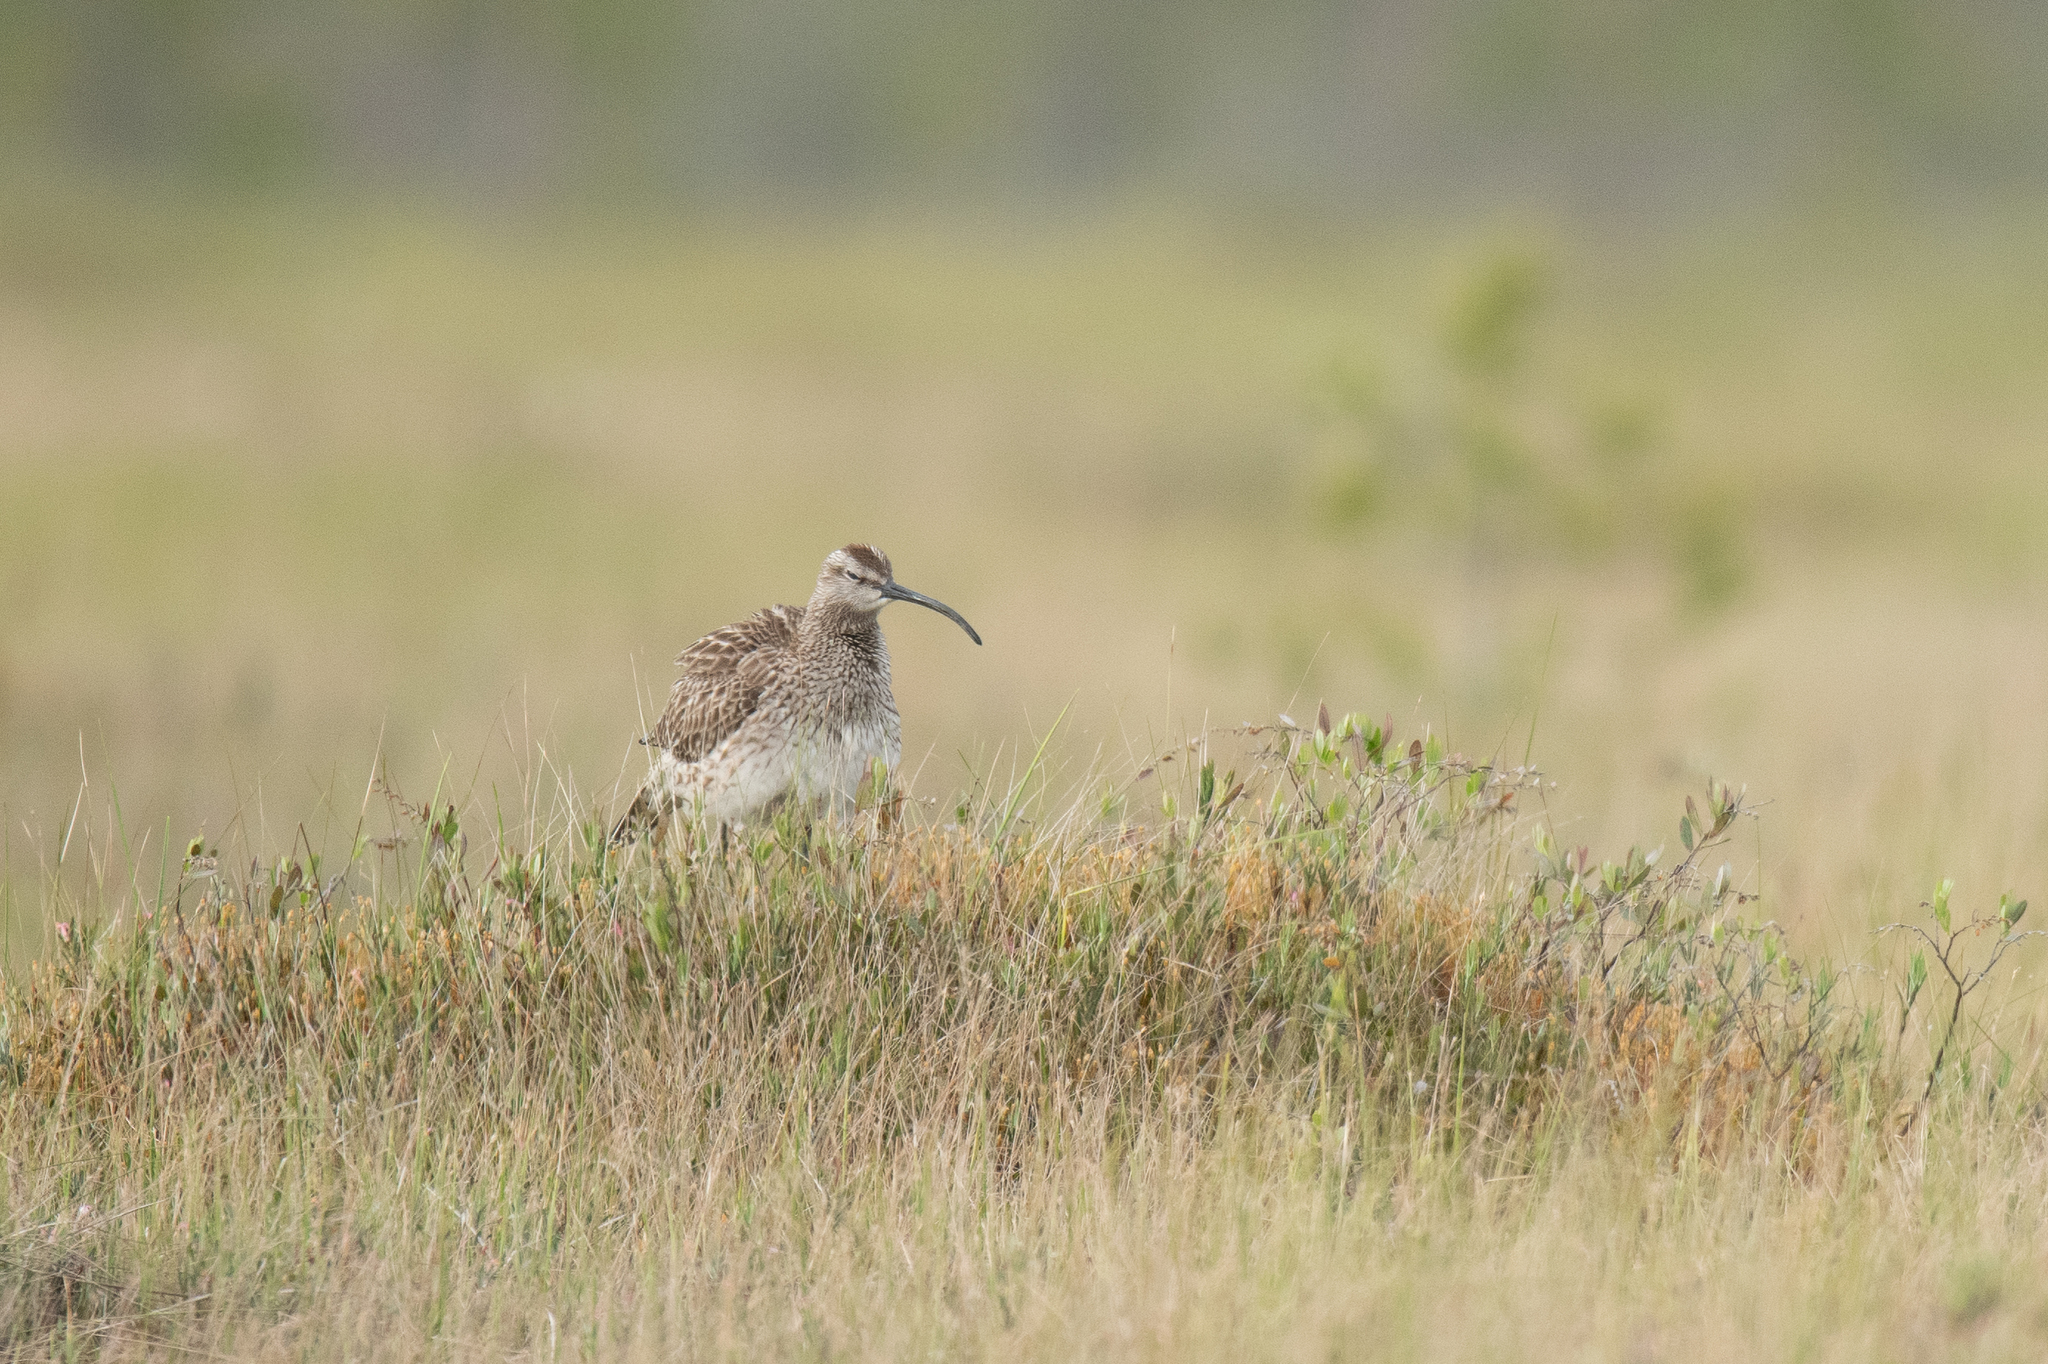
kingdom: Animalia
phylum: Chordata
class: Aves
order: Charadriiformes
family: Scolopacidae
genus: Numenius
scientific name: Numenius phaeopus
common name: Whimbrel
